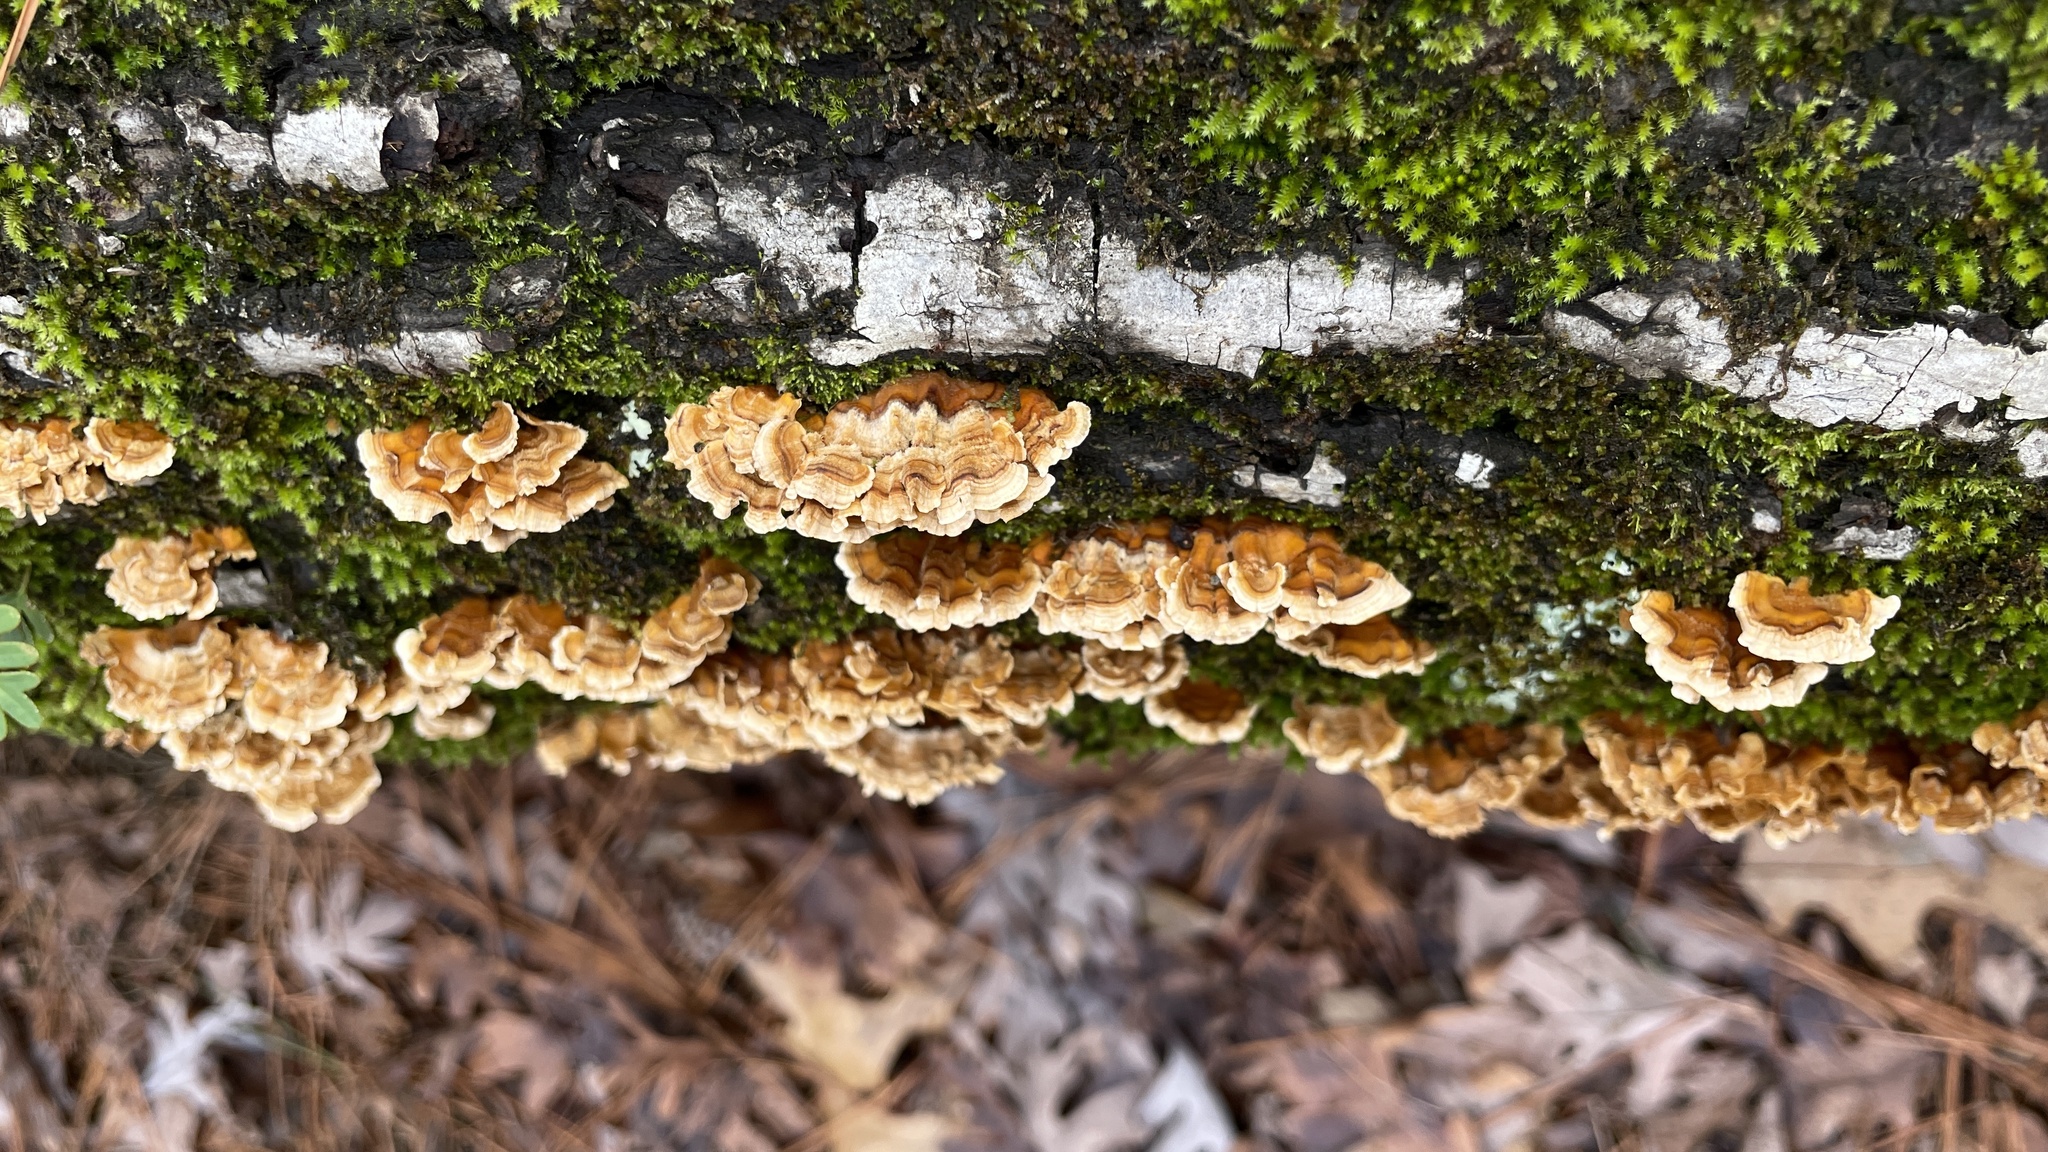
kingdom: Fungi
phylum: Basidiomycota
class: Agaricomycetes
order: Russulales
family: Stereaceae
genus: Stereum
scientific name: Stereum complicatum
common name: Crowded parchment
